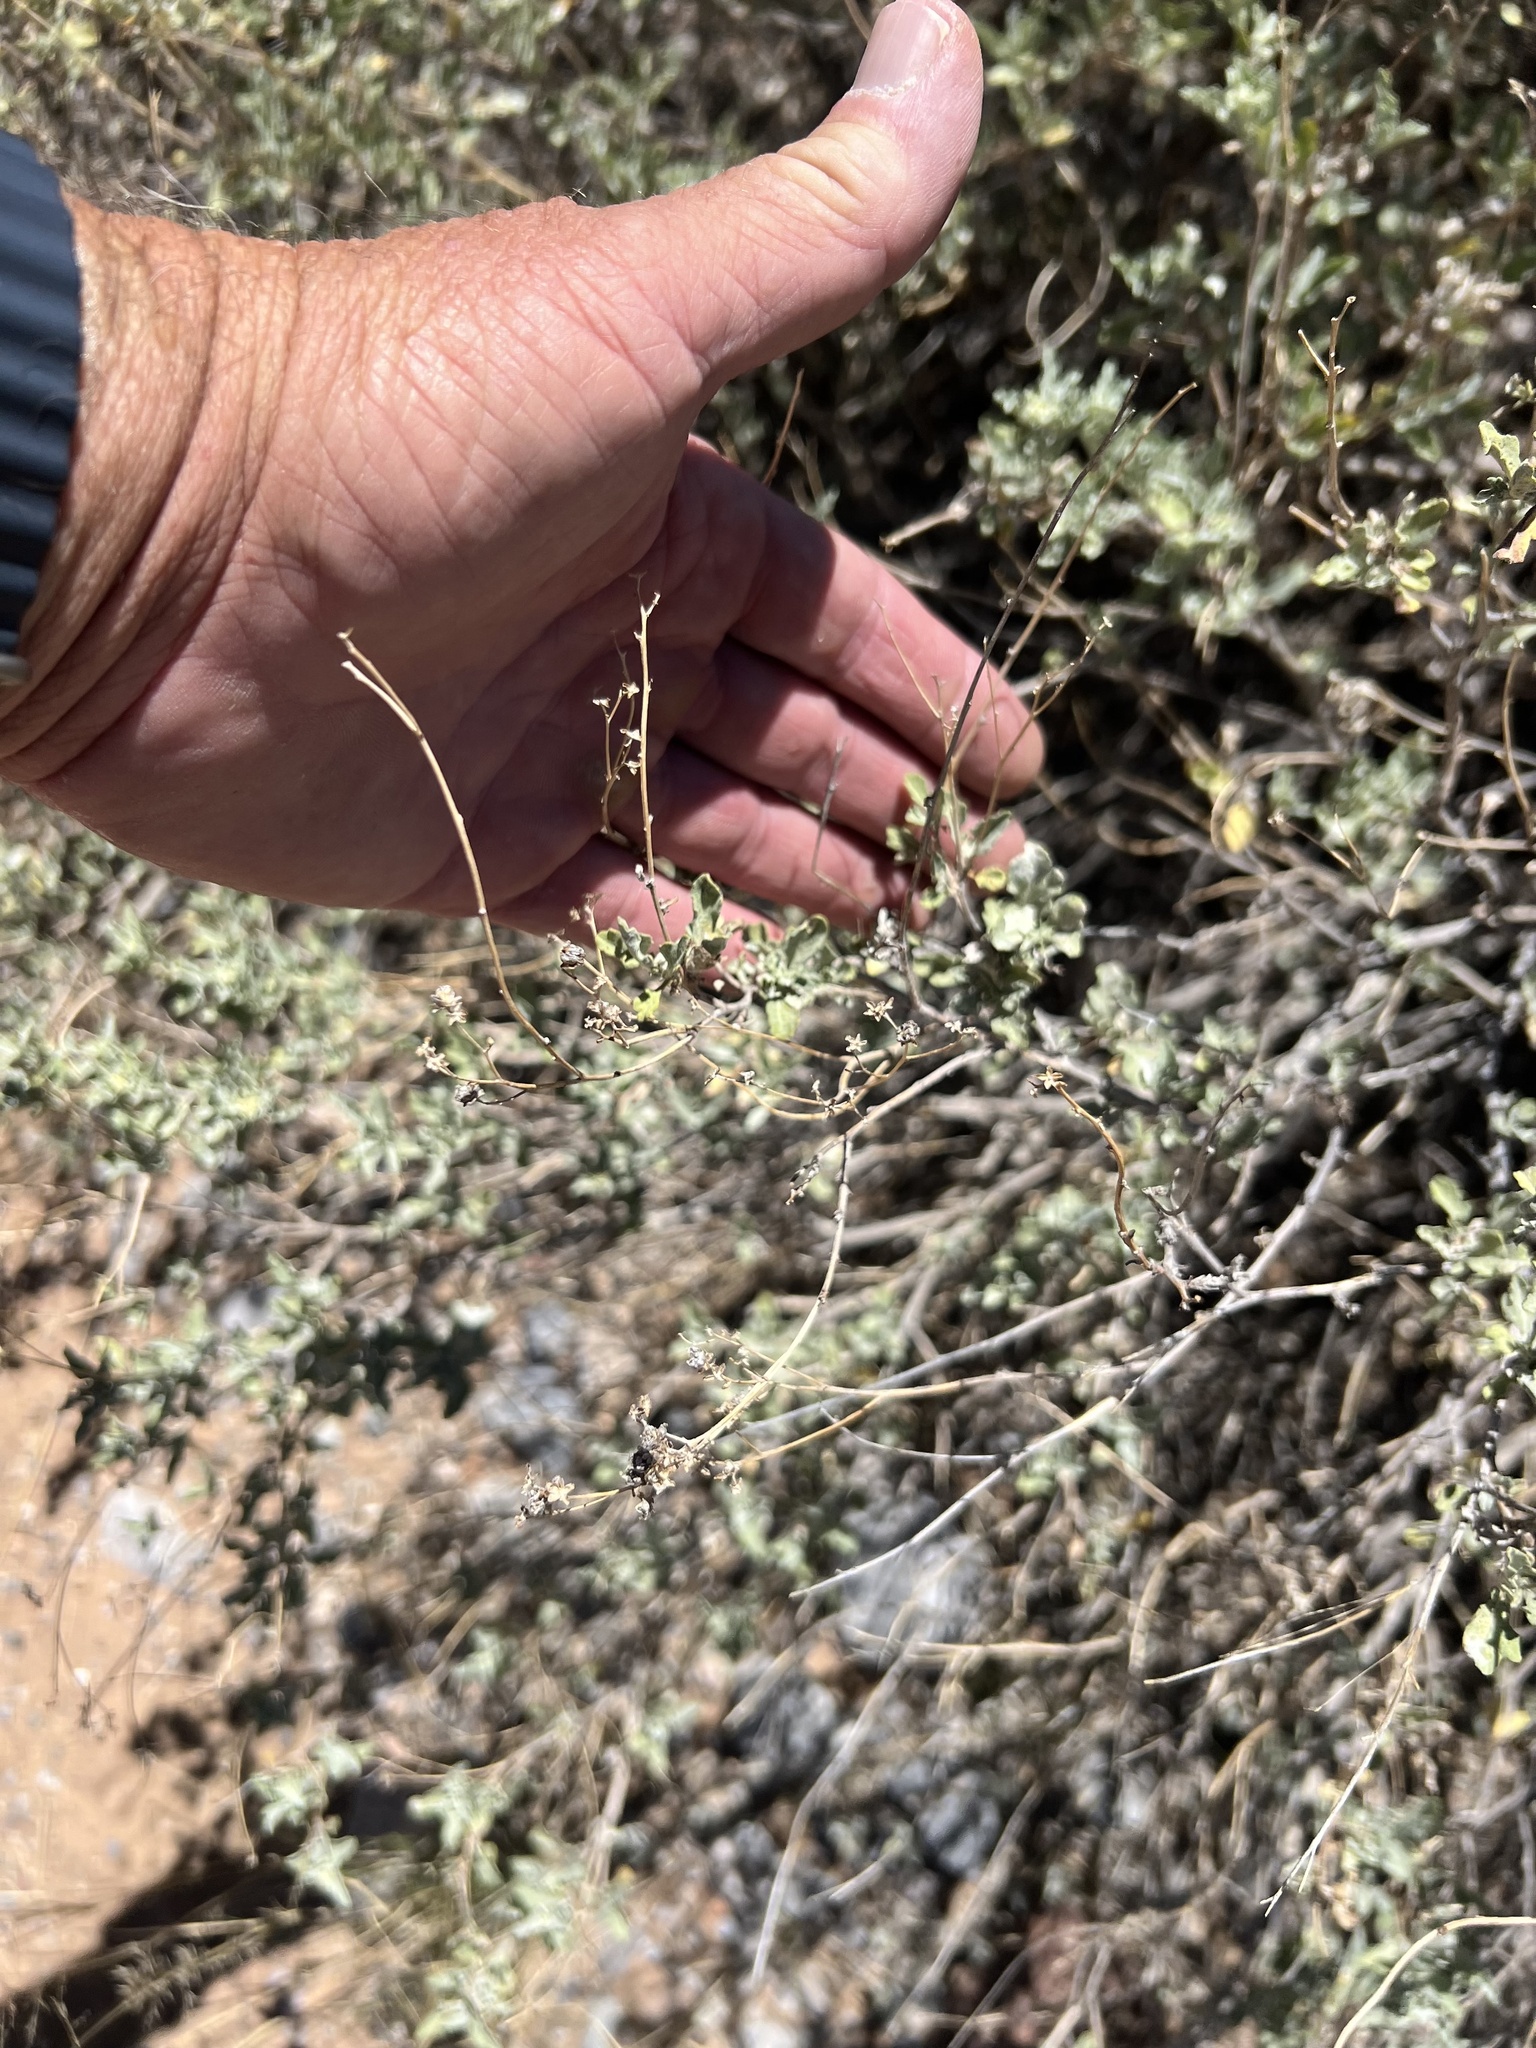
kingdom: Plantae
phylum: Tracheophyta
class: Magnoliopsida
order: Asterales
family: Asteraceae
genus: Parthenium
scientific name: Parthenium incanum
